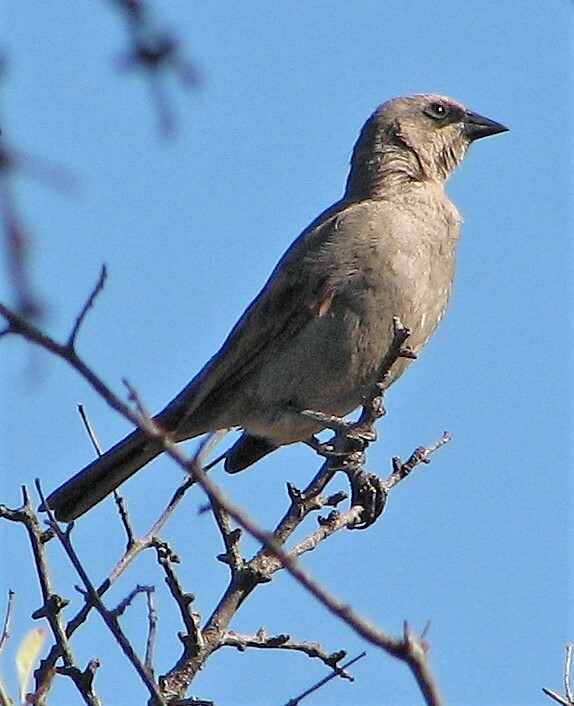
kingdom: Animalia
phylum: Chordata
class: Aves
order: Passeriformes
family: Icteridae
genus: Agelaioides
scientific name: Agelaioides badius
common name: Baywing
